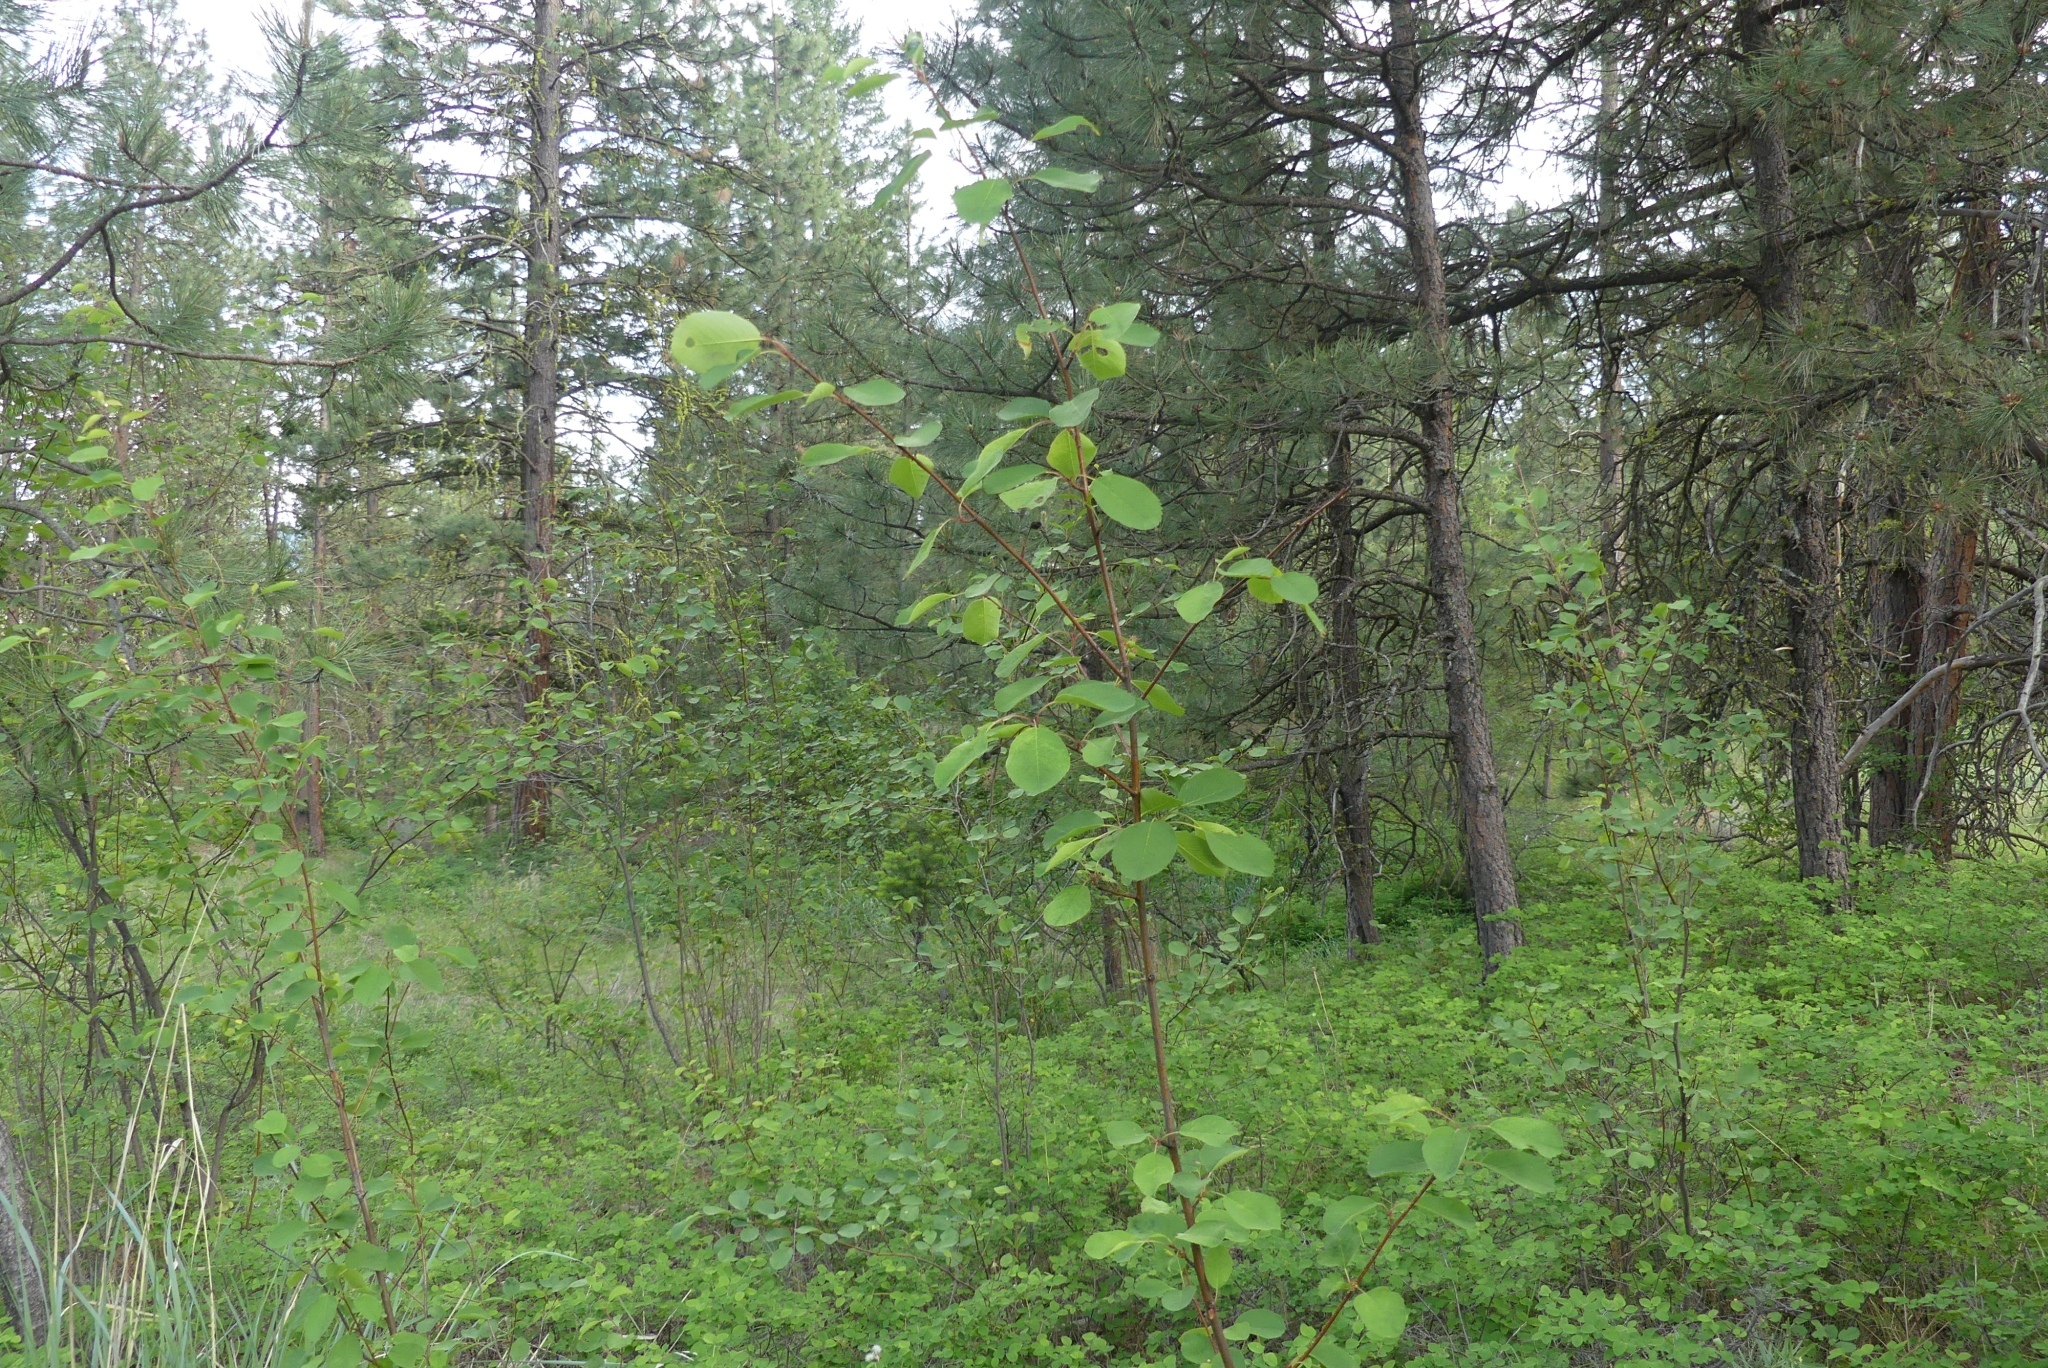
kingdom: Plantae
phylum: Tracheophyta
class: Magnoliopsida
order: Rosales
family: Rosaceae
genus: Amelanchier
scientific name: Amelanchier alnifolia
